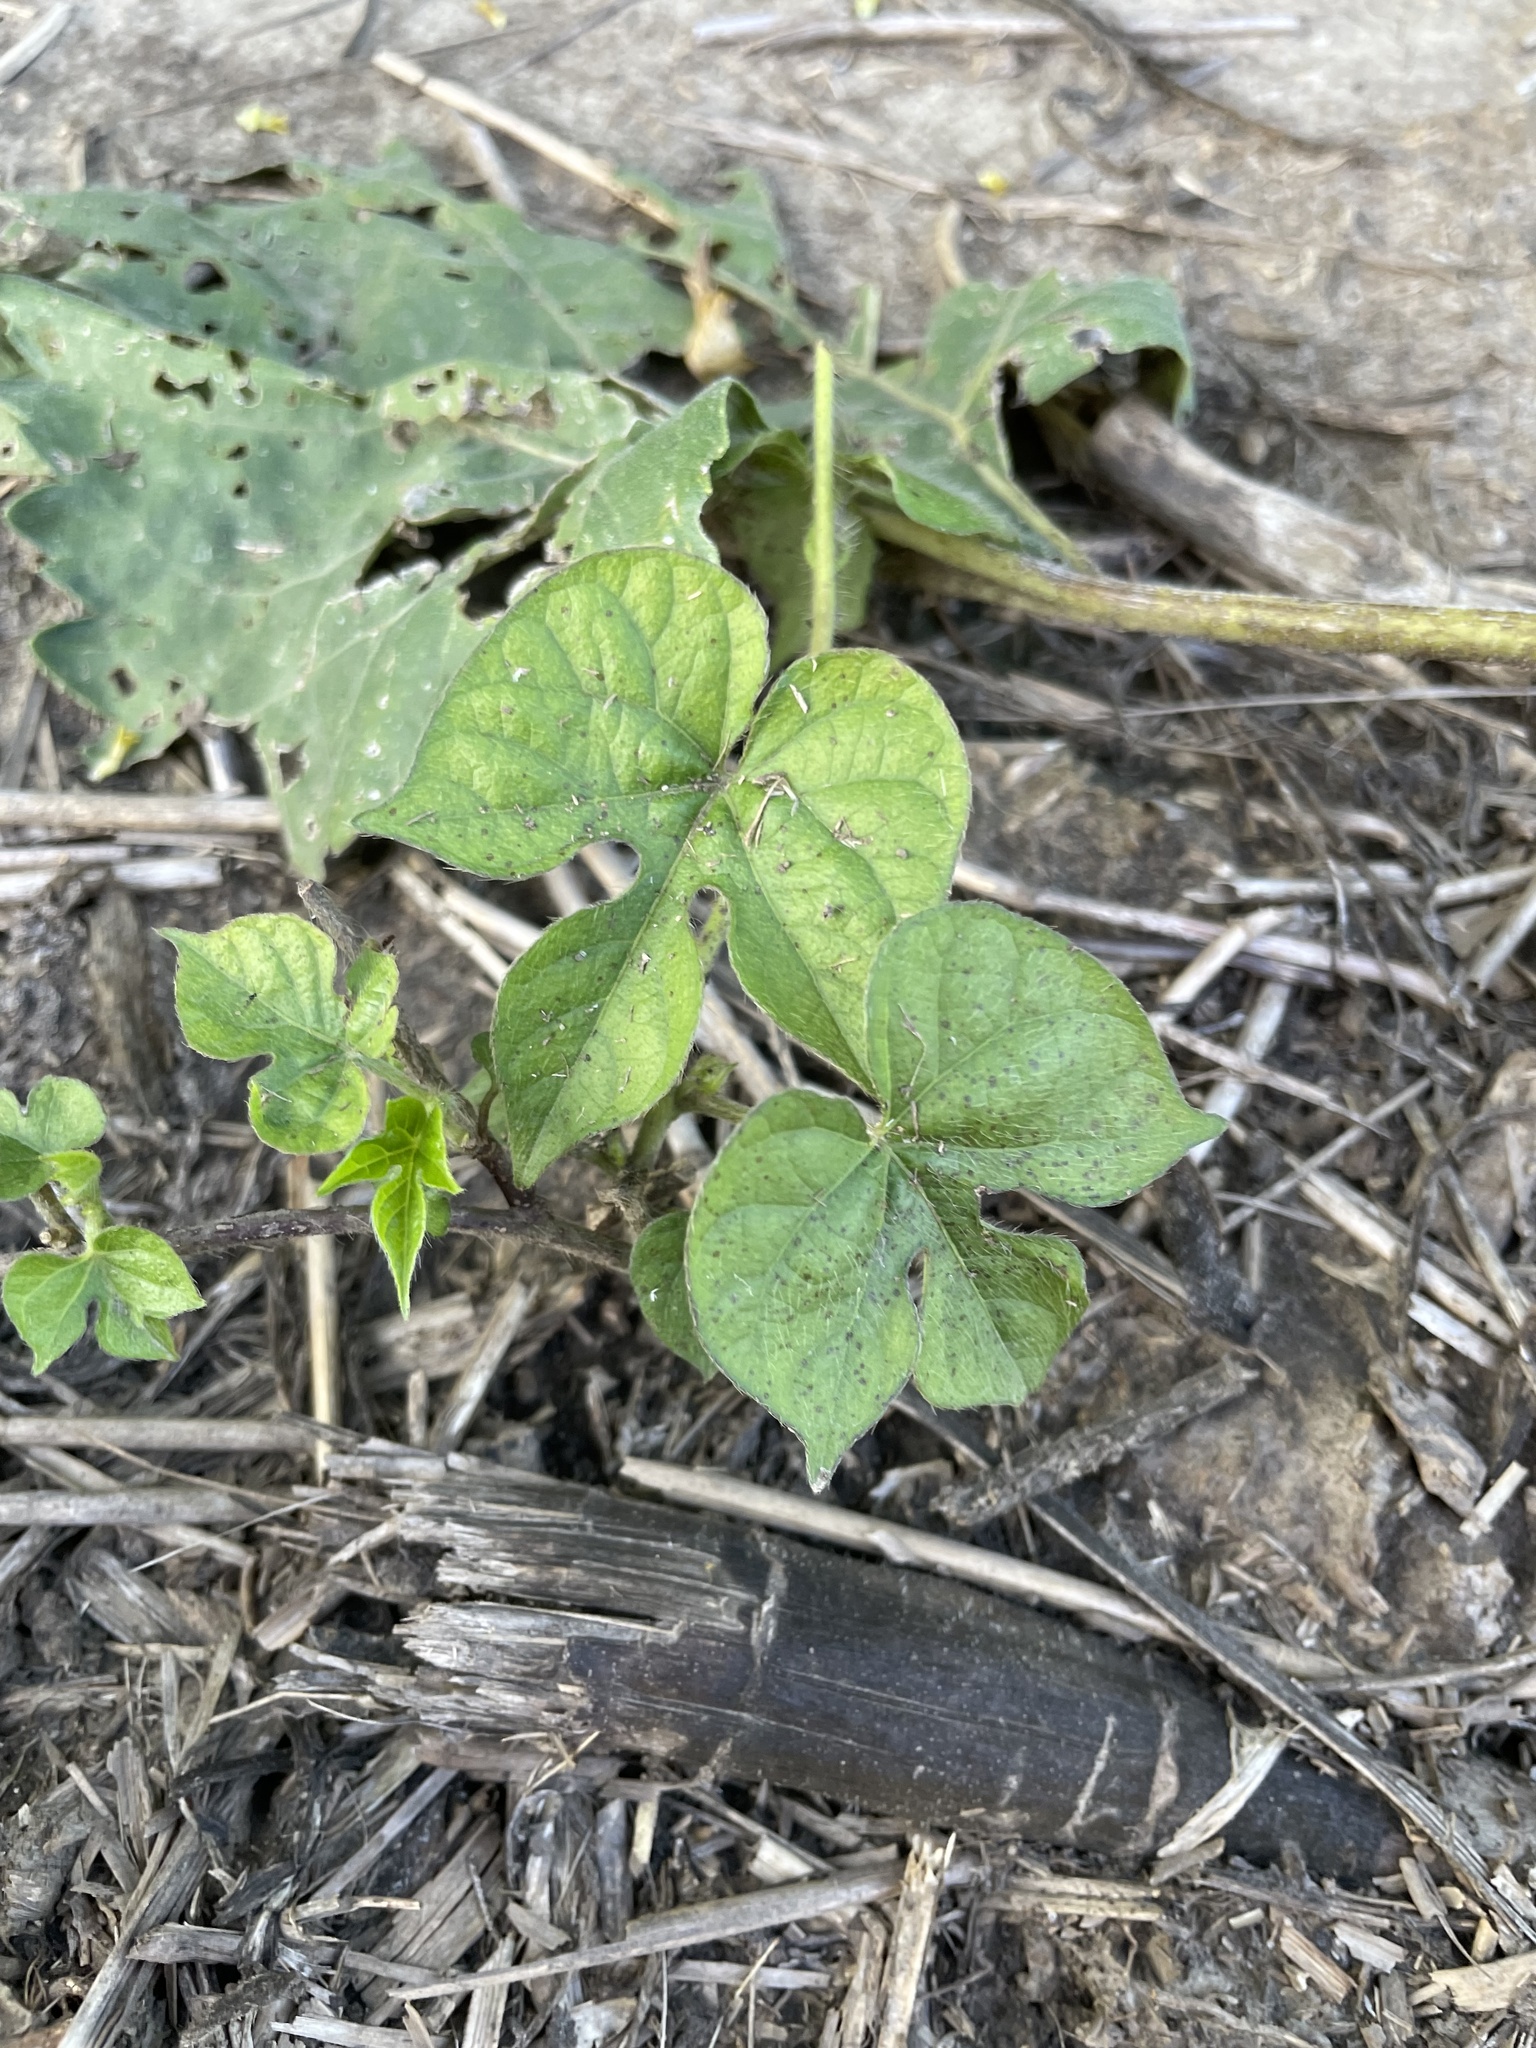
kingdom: Plantae
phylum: Tracheophyta
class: Magnoliopsida
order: Solanales
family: Convolvulaceae
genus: Ipomoea
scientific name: Ipomoea hederacea
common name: Ivy-leaved morning-glory
